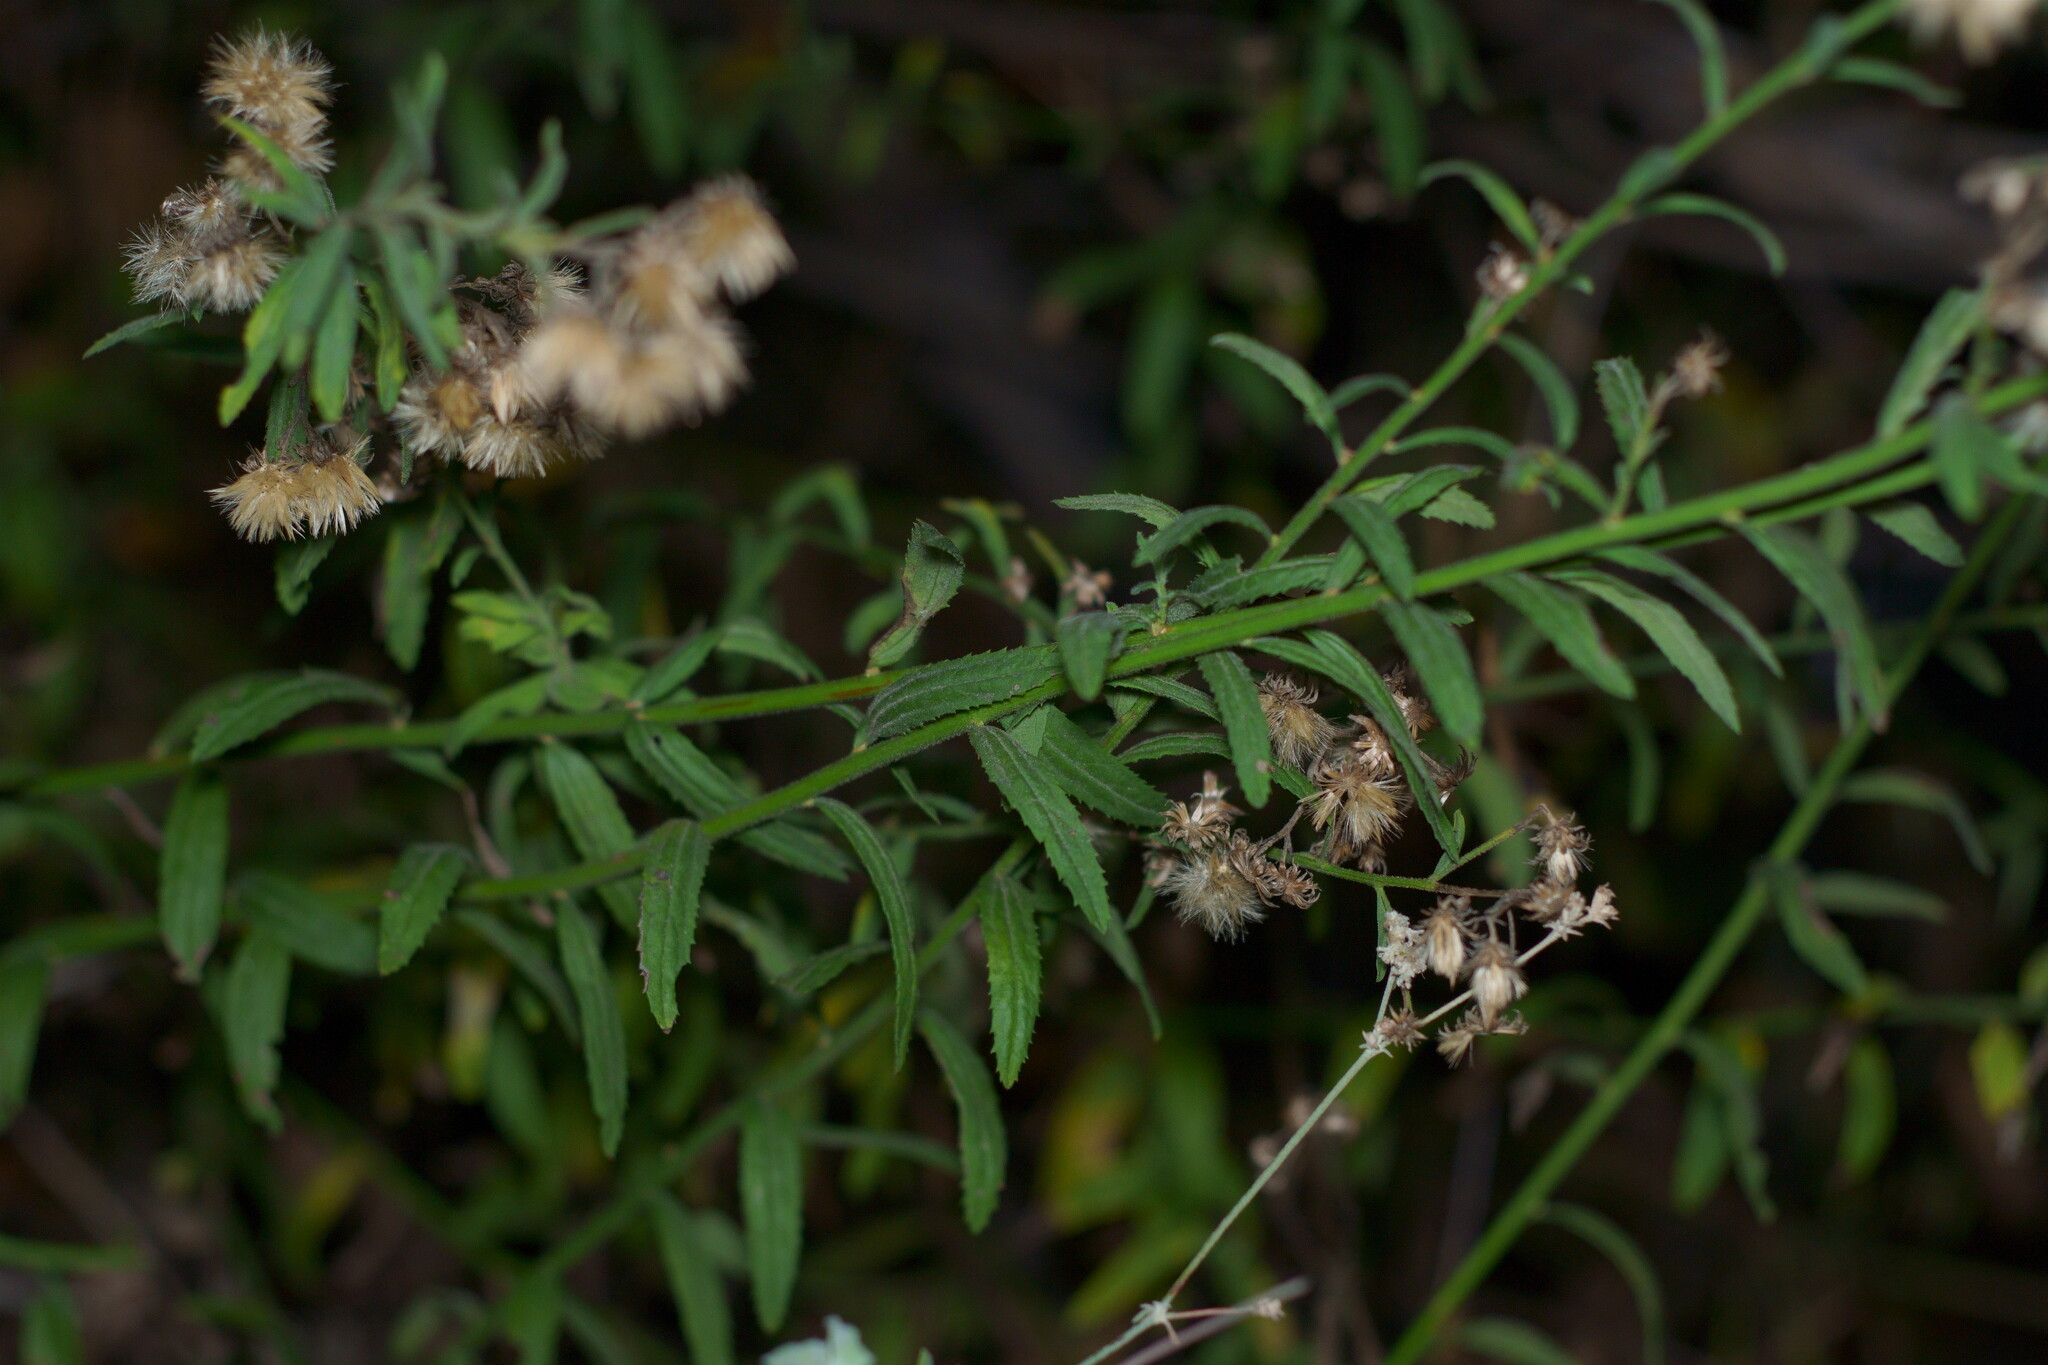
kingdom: Plantae
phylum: Tracheophyta
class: Magnoliopsida
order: Asterales
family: Asteraceae
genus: Baccharis
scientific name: Baccharis plummerae
